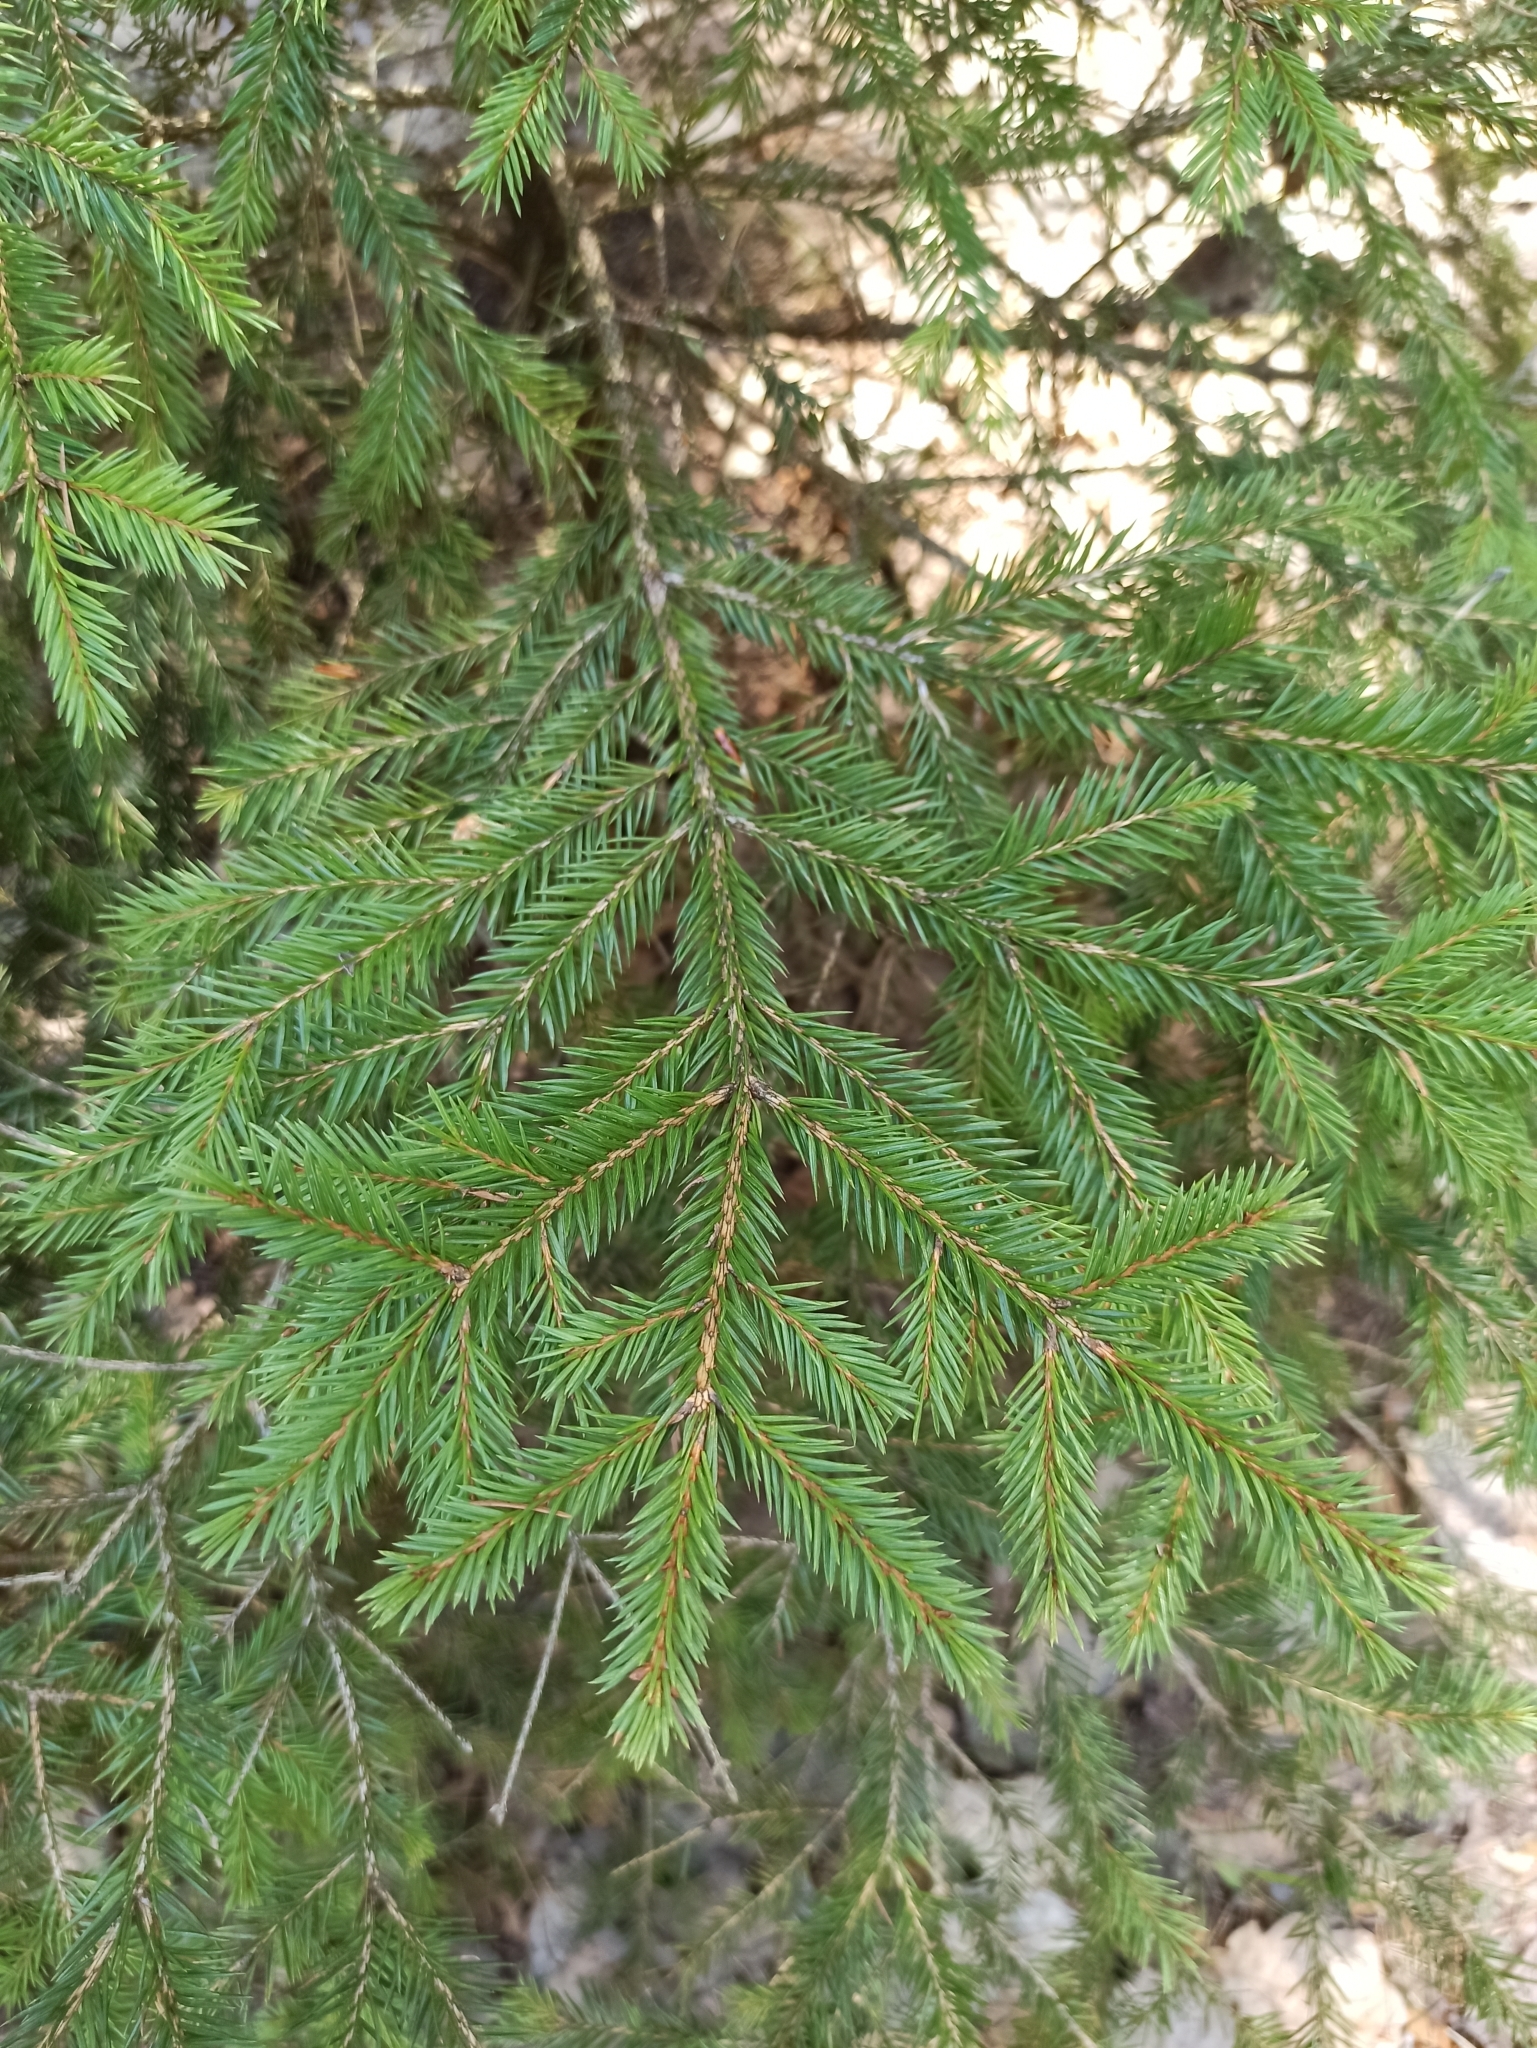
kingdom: Plantae
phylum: Tracheophyta
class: Pinopsida
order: Pinales
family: Pinaceae
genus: Picea
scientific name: Picea abies
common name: Norway spruce
